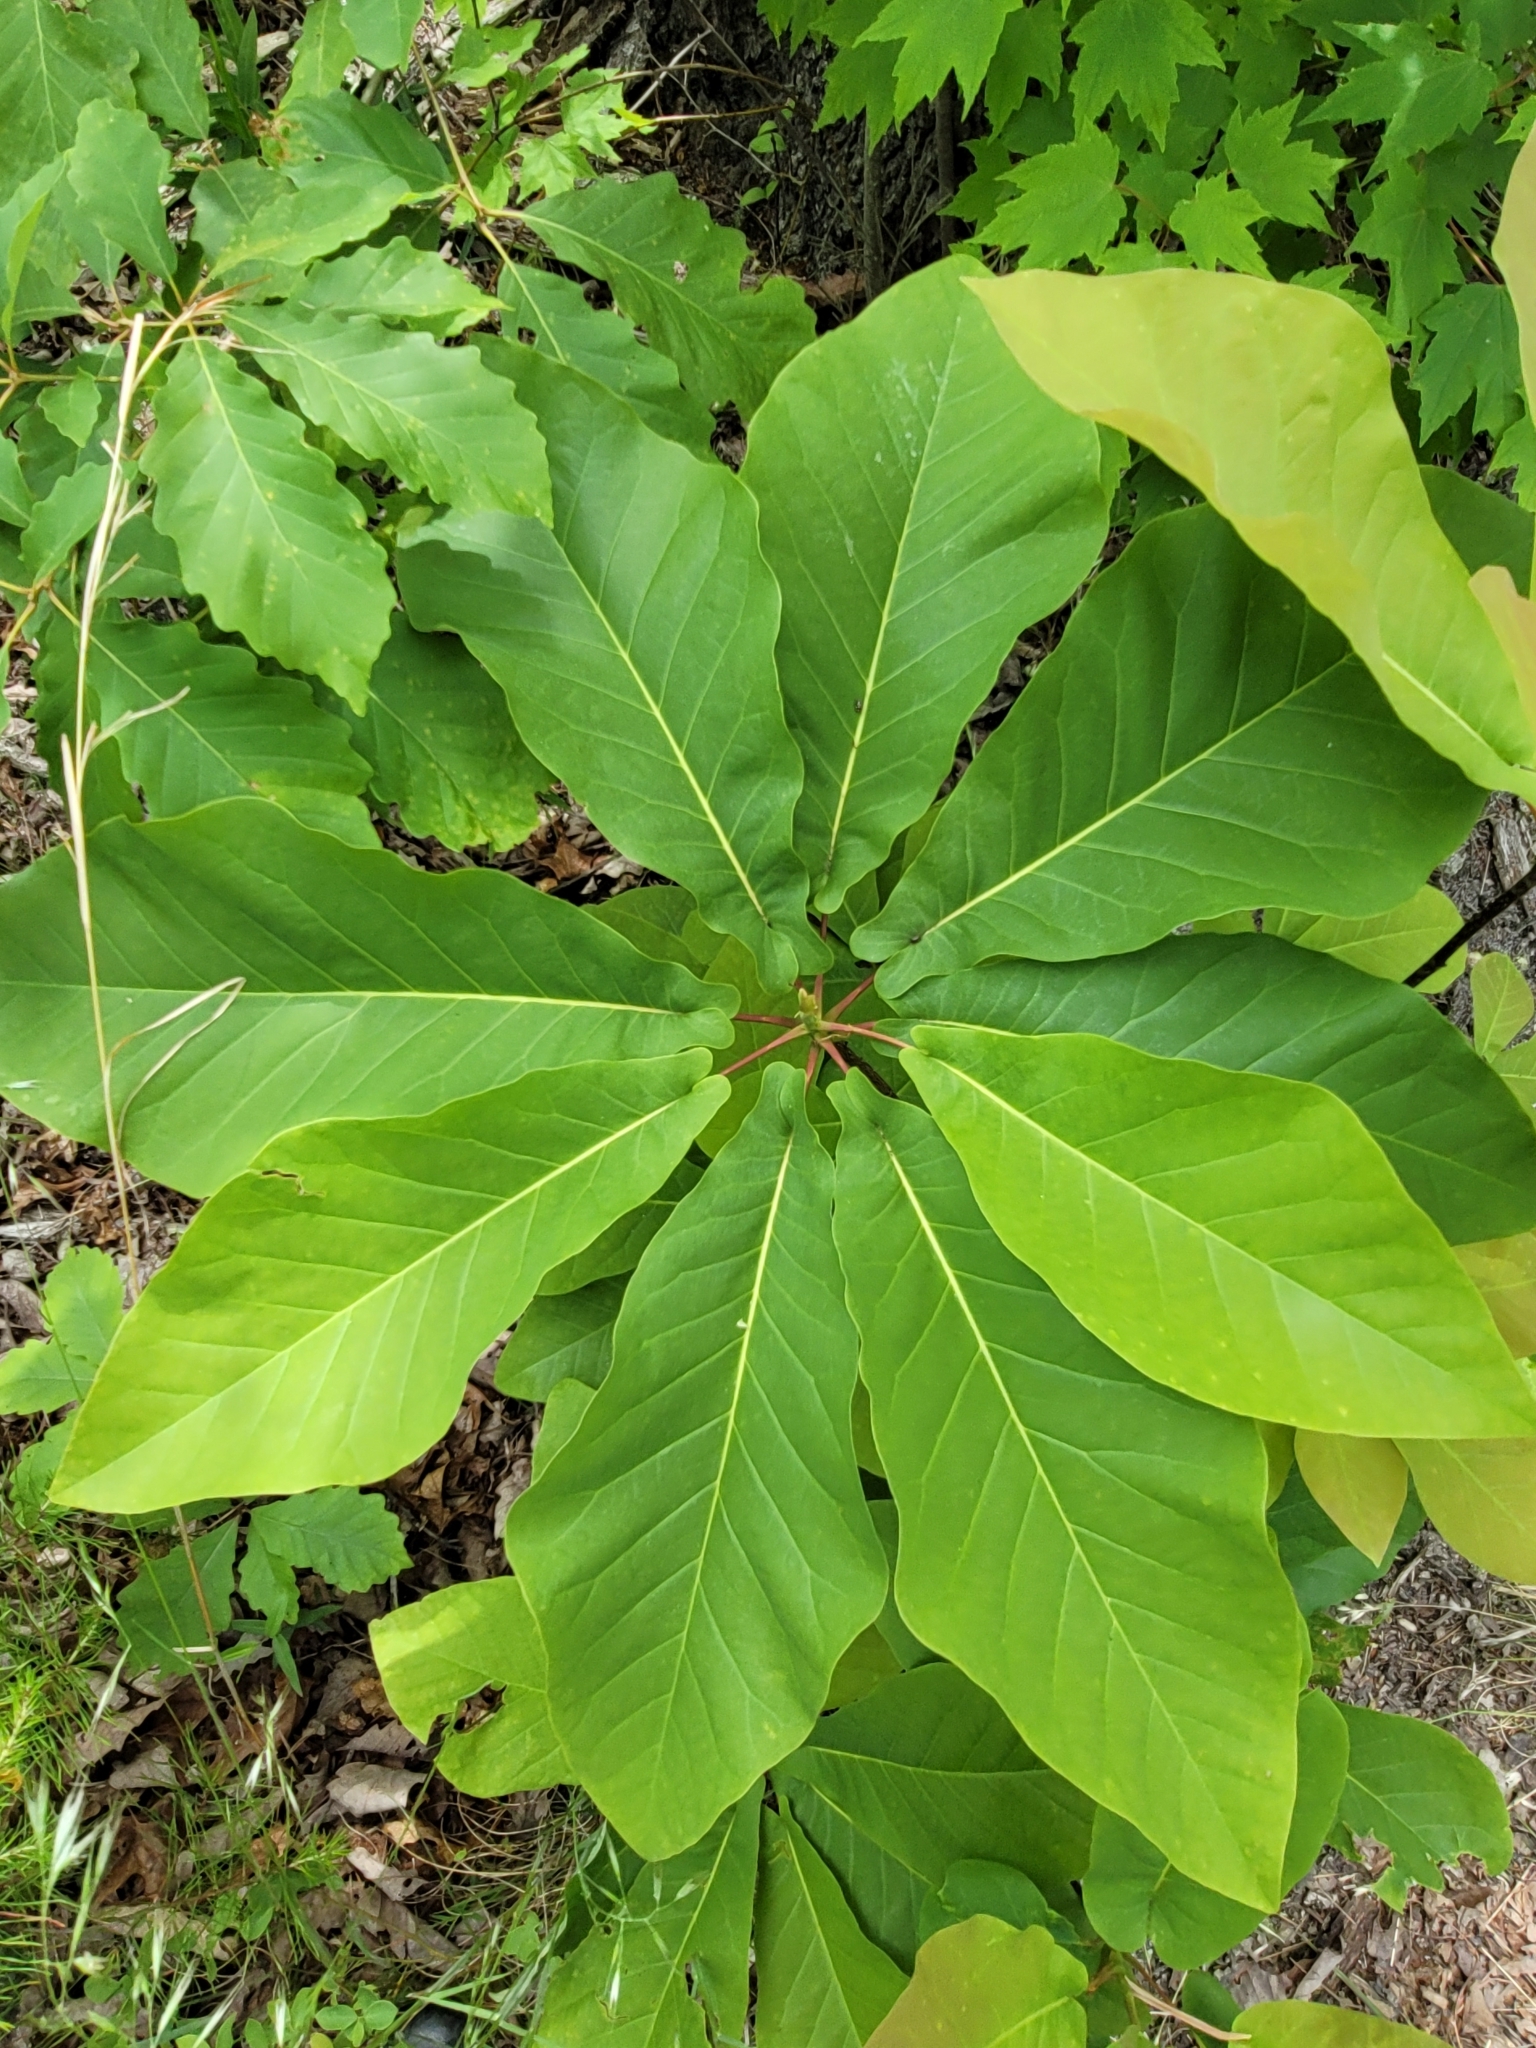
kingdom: Plantae
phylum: Tracheophyta
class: Magnoliopsida
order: Magnoliales
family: Magnoliaceae
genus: Magnolia
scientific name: Magnolia fraseri
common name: Fraser's magnolia
